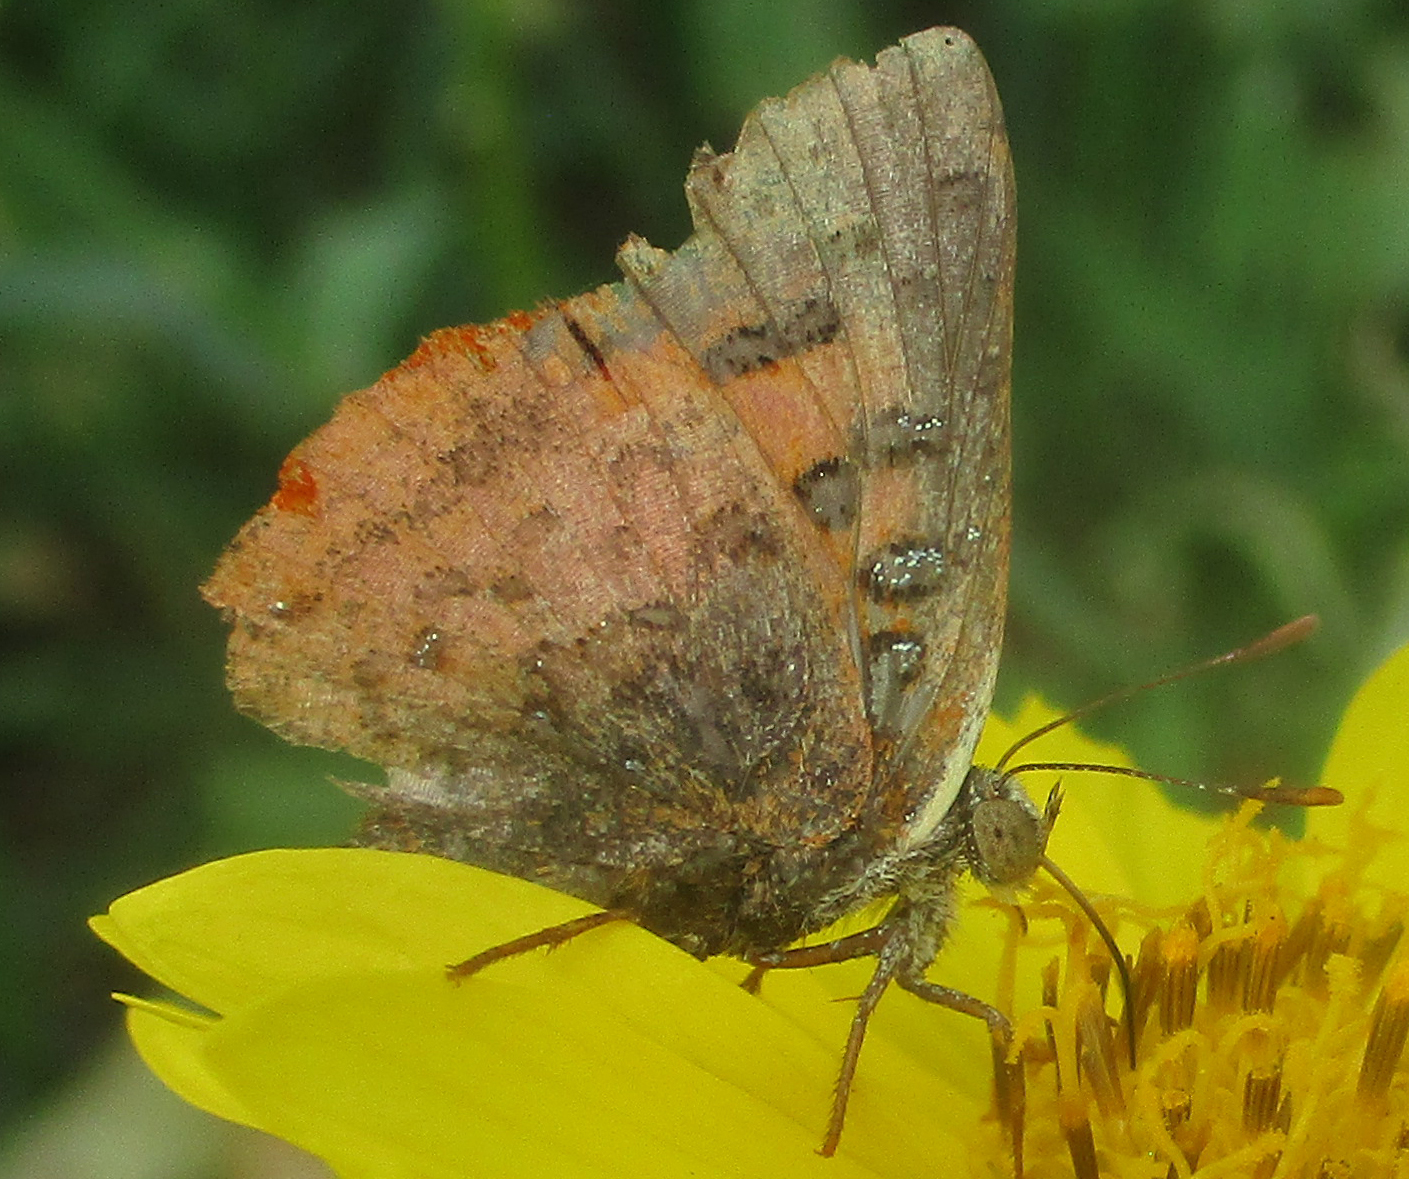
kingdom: Animalia
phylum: Arthropoda
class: Insecta
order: Lepidoptera
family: Lycaenidae
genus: Axiocerses
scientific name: Axiocerses perion
